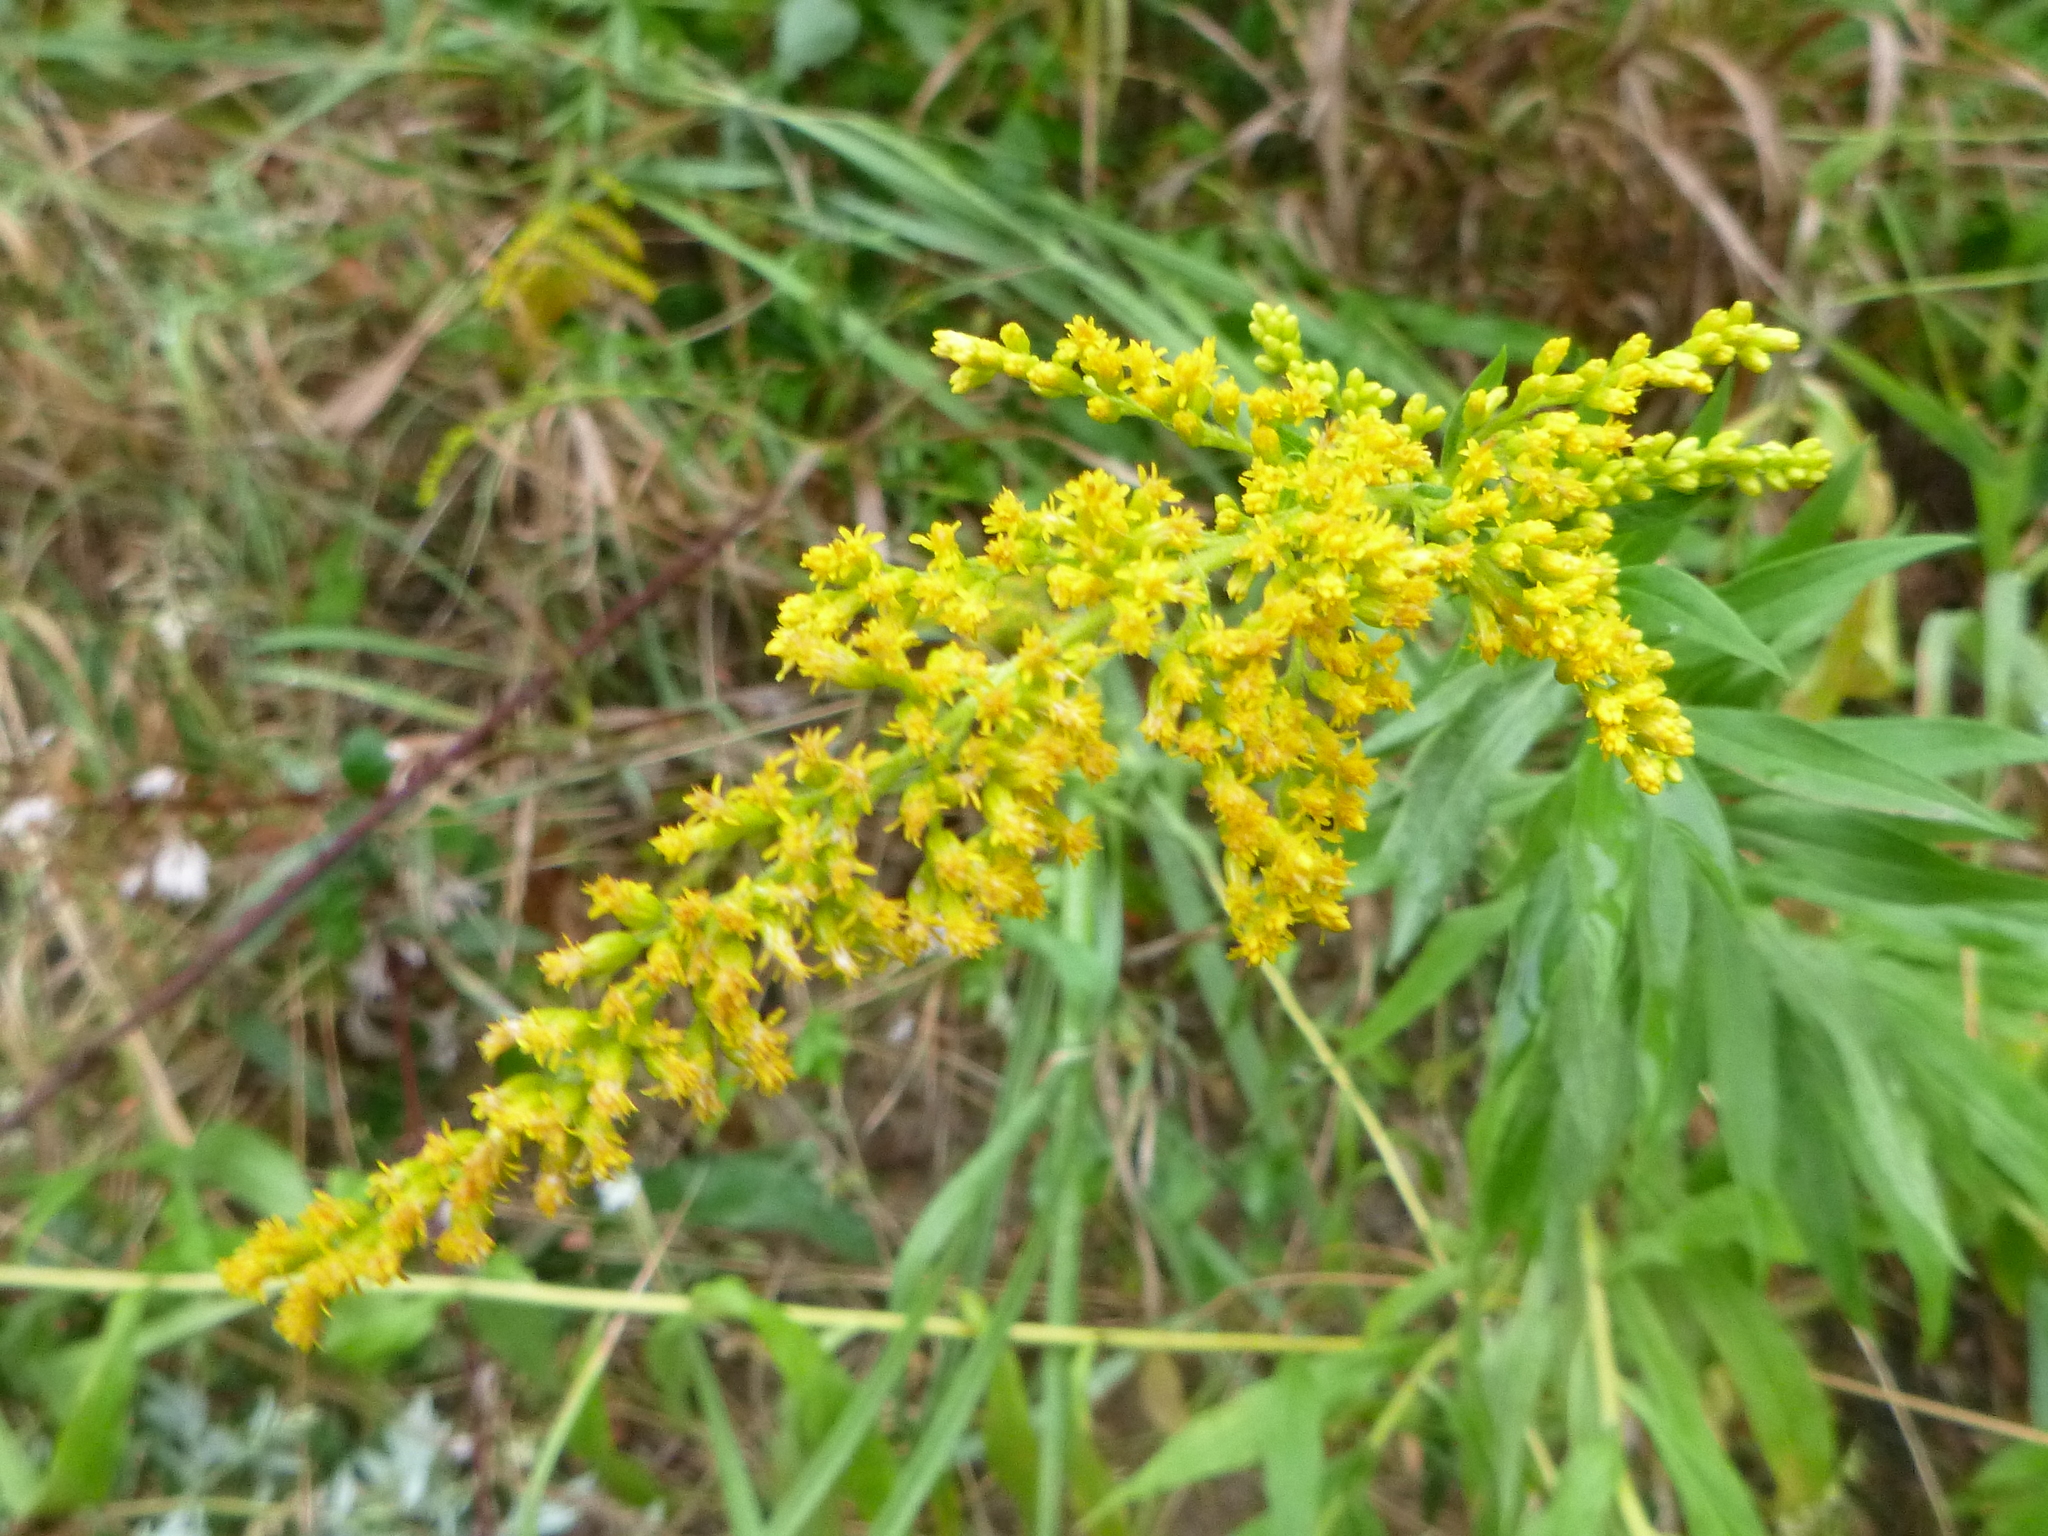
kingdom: Plantae
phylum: Tracheophyta
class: Magnoliopsida
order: Asterales
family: Asteraceae
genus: Solidago
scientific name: Solidago canadensis
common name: Canada goldenrod
